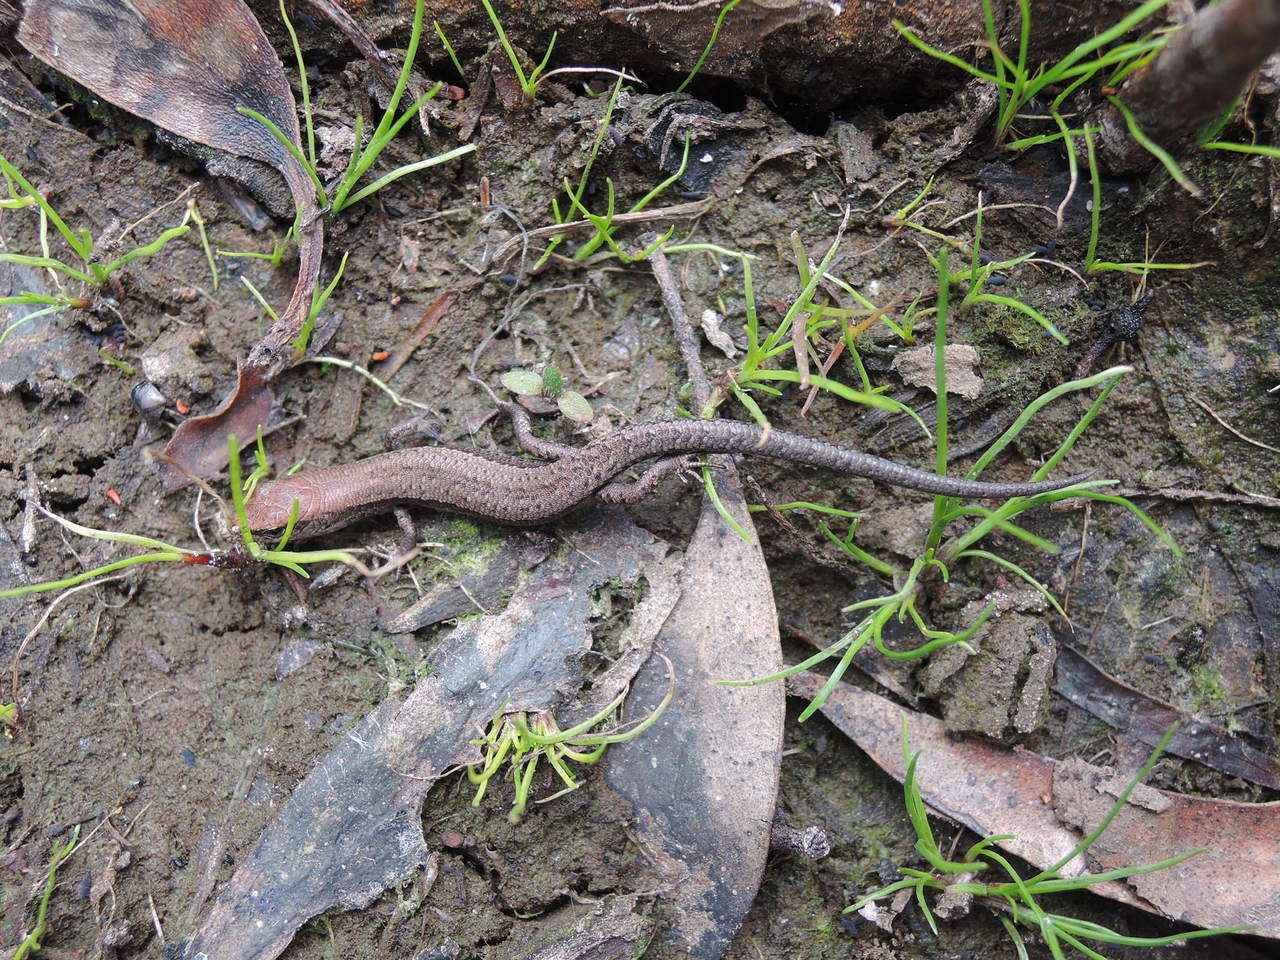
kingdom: Animalia
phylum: Chordata
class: Squamata
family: Scincidae
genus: Lampropholis
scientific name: Lampropholis guichenoti
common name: Garden skink
